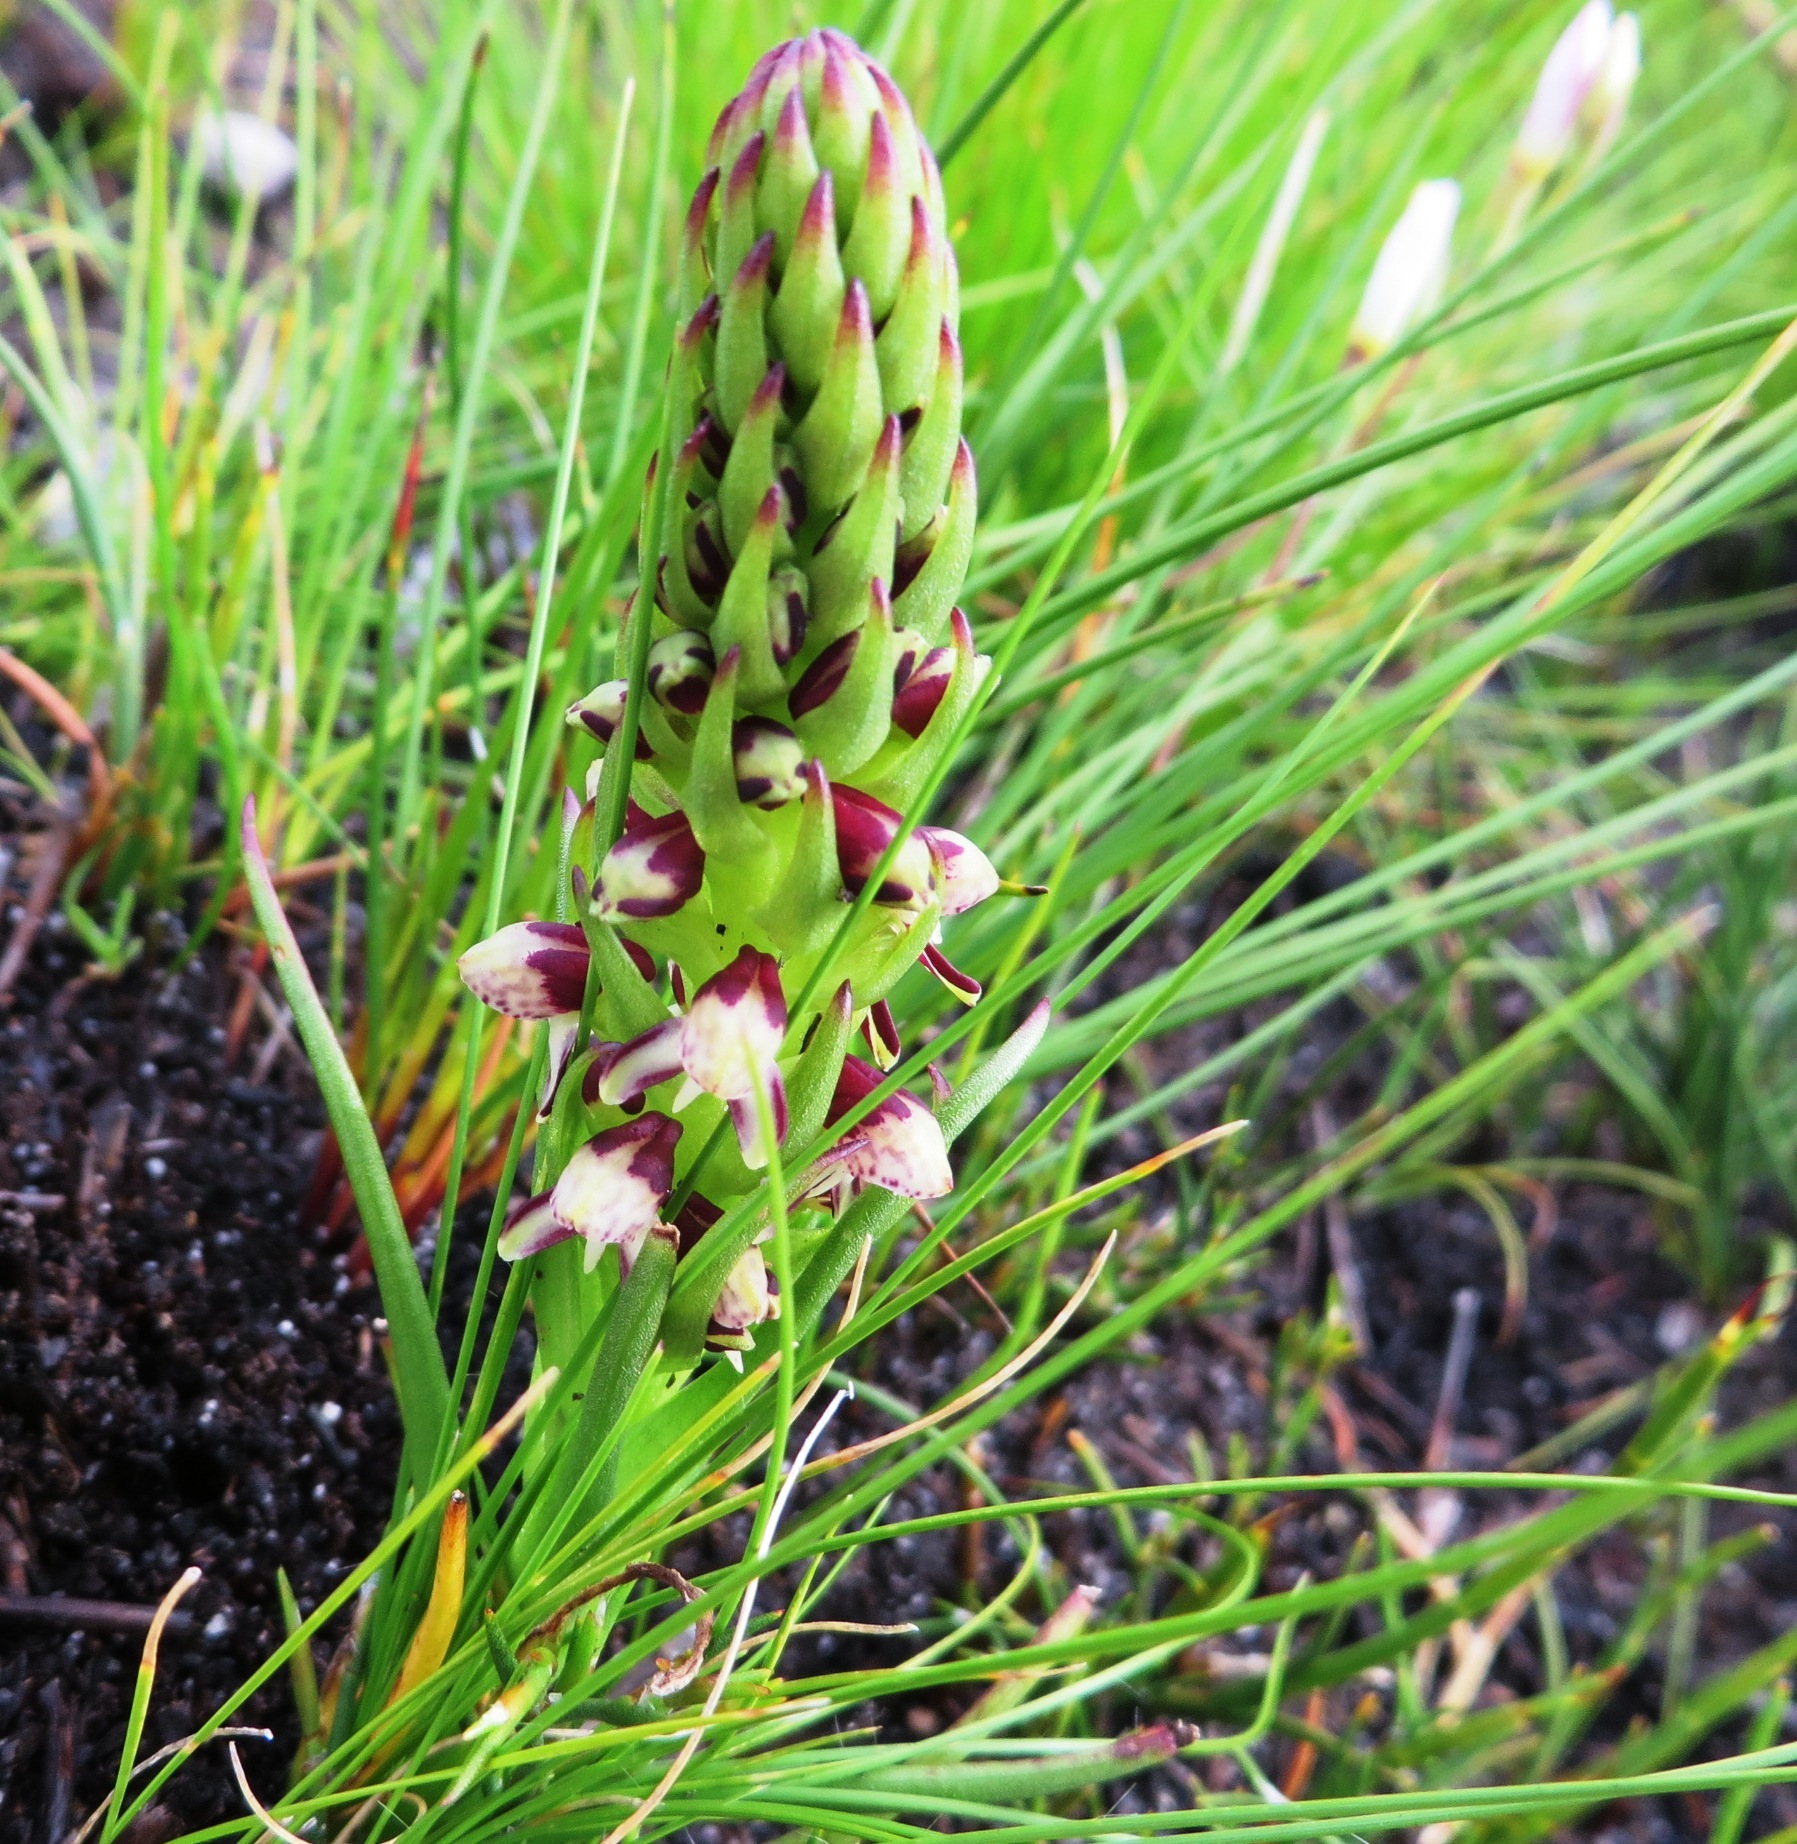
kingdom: Plantae
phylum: Tracheophyta
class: Liliopsida
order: Asparagales
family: Orchidaceae
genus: Disa
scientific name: Disa obtusa
